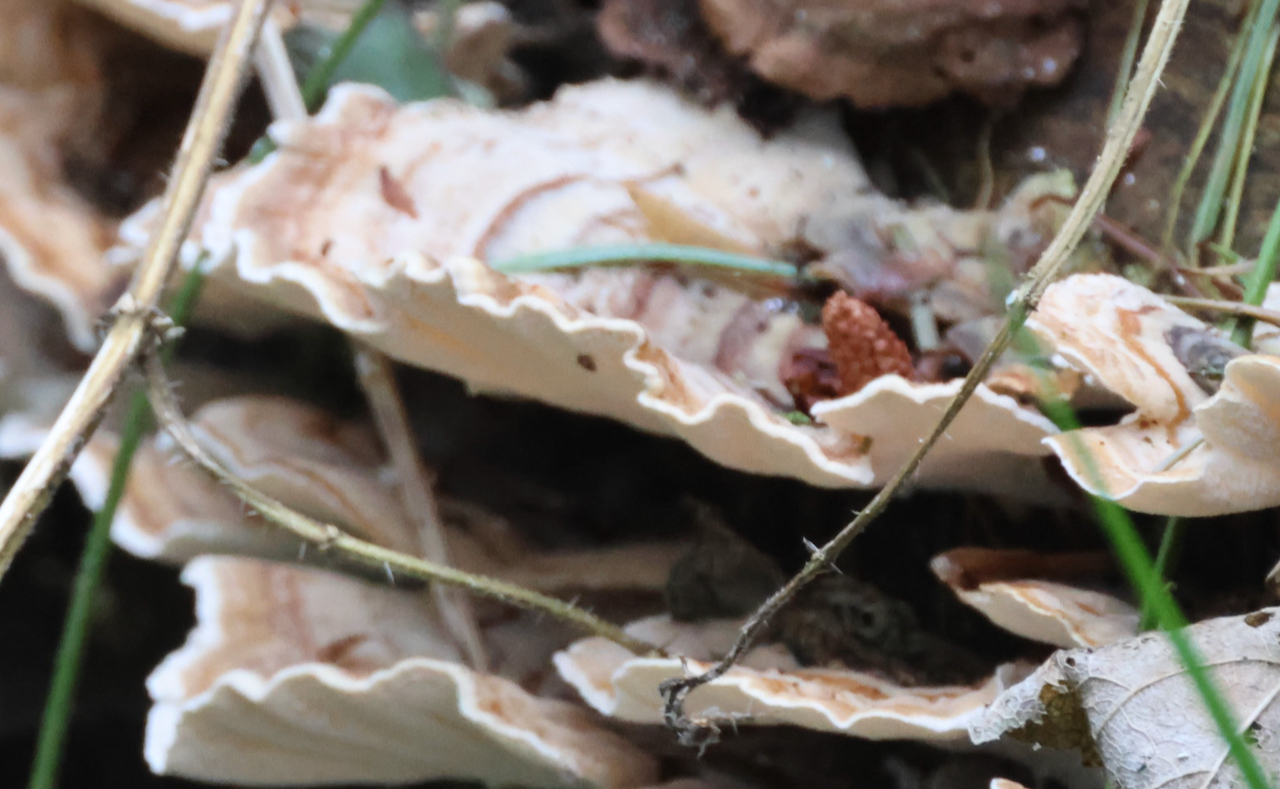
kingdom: Fungi
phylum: Basidiomycota
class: Agaricomycetes
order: Polyporales
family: Polyporaceae
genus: Trametes
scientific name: Trametes versicolor
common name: Turkeytail
